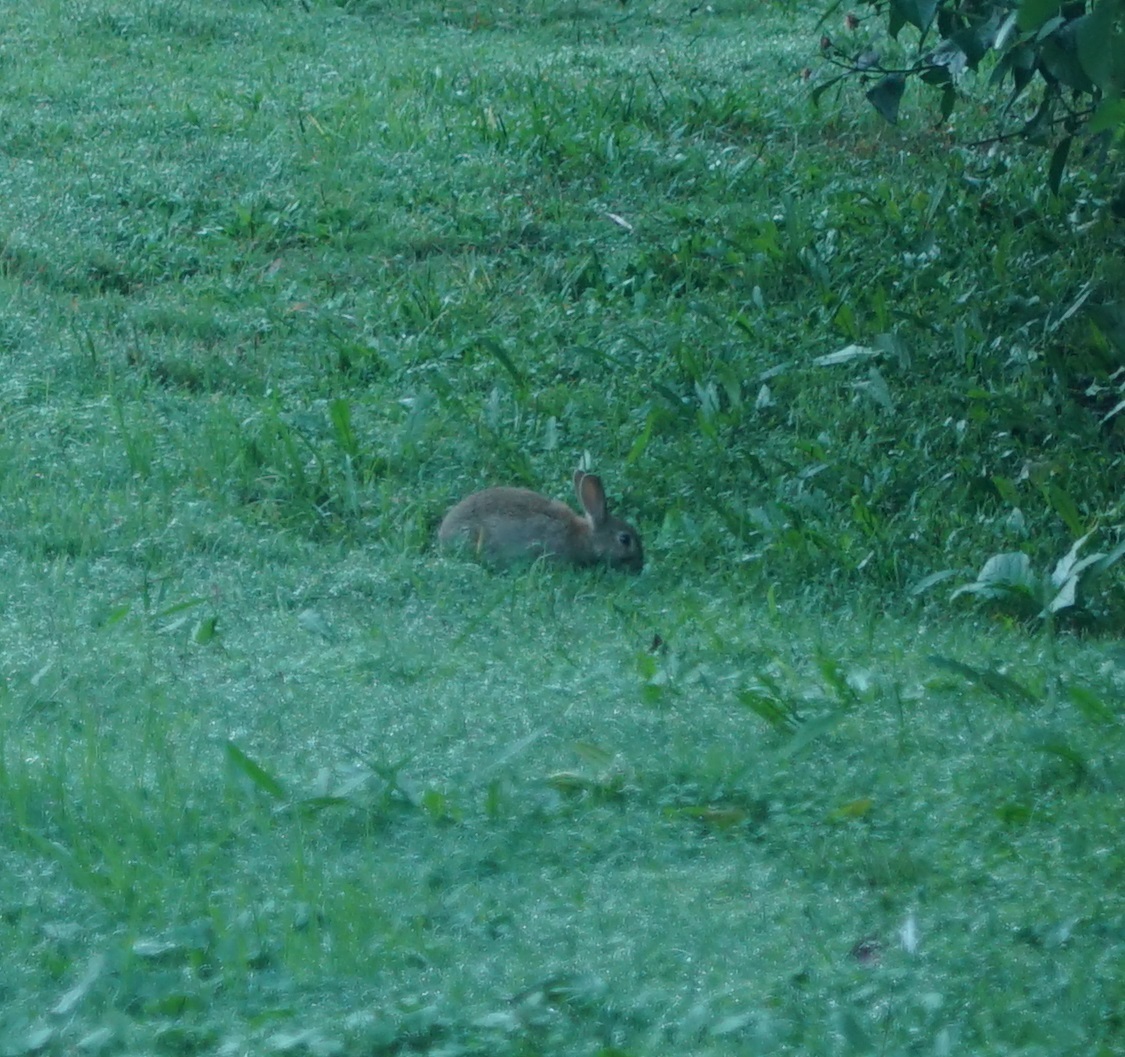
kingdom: Animalia
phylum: Chordata
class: Mammalia
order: Lagomorpha
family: Leporidae
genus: Oryctolagus
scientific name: Oryctolagus cuniculus
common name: European rabbit
